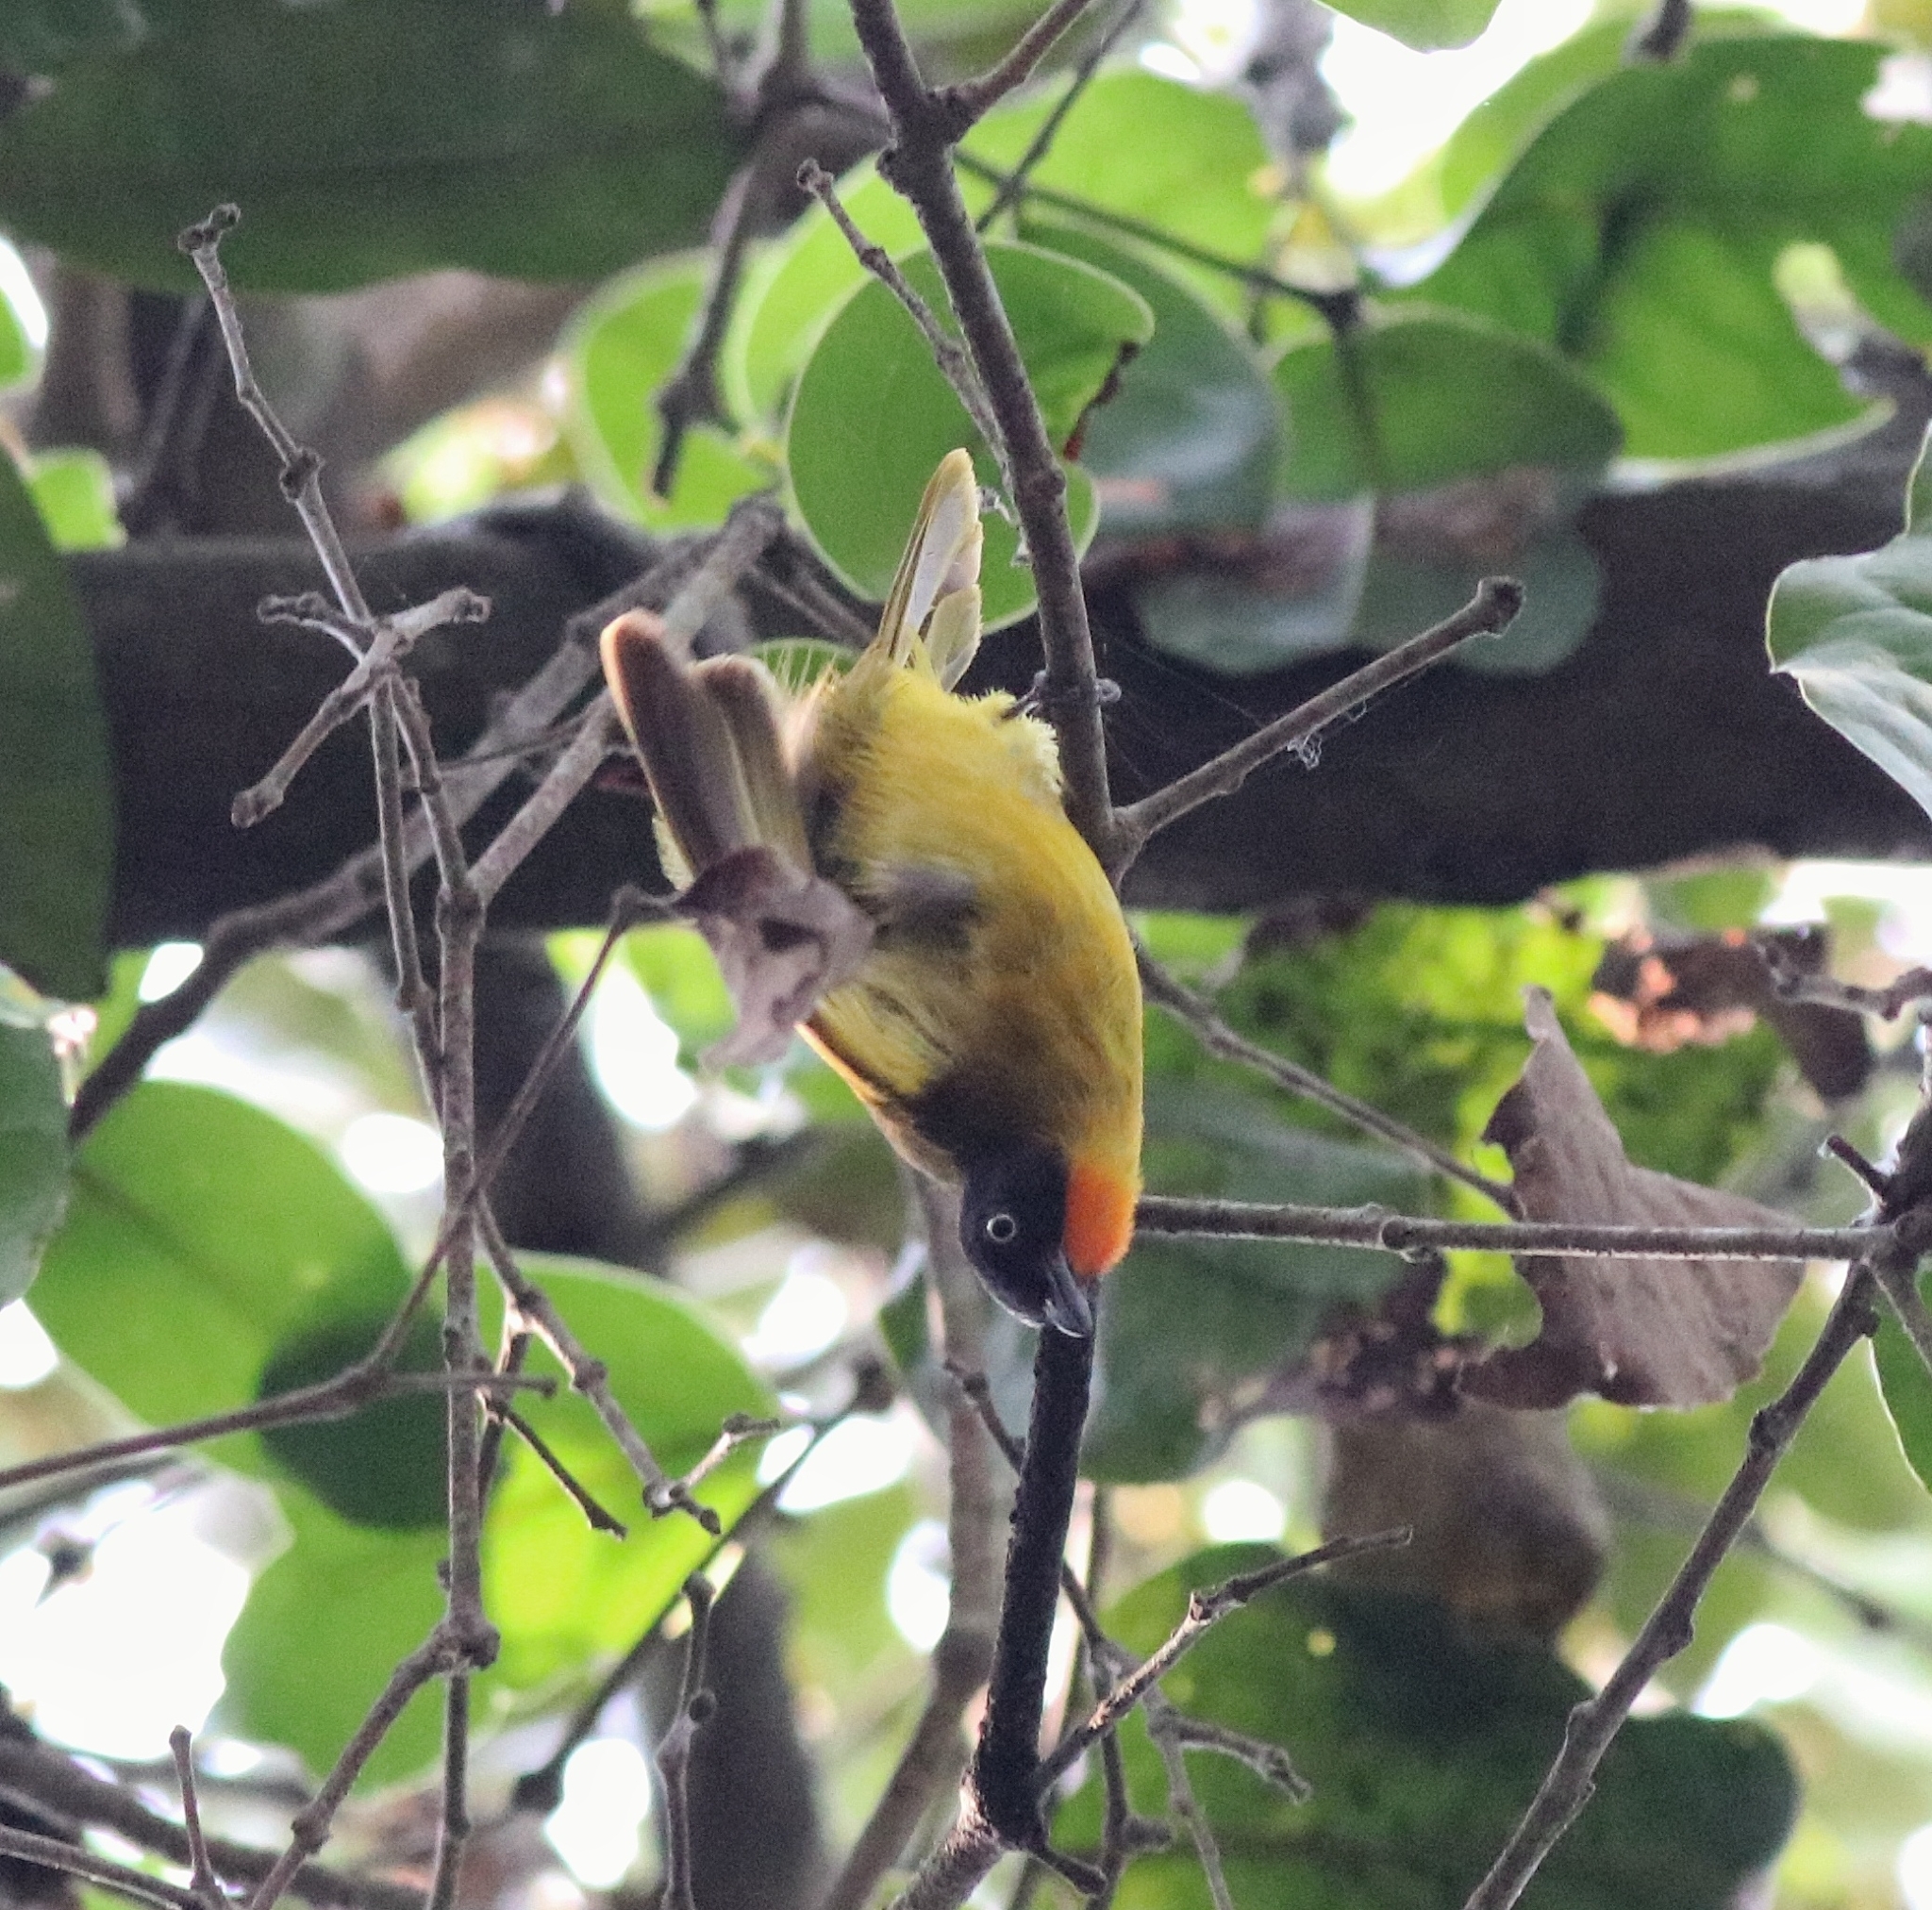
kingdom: Animalia
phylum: Chordata
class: Aves
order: Passeriformes
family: Pycnonotidae
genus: Pycnonotus
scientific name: Pycnonotus gularis
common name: Flame-throated bulbul
